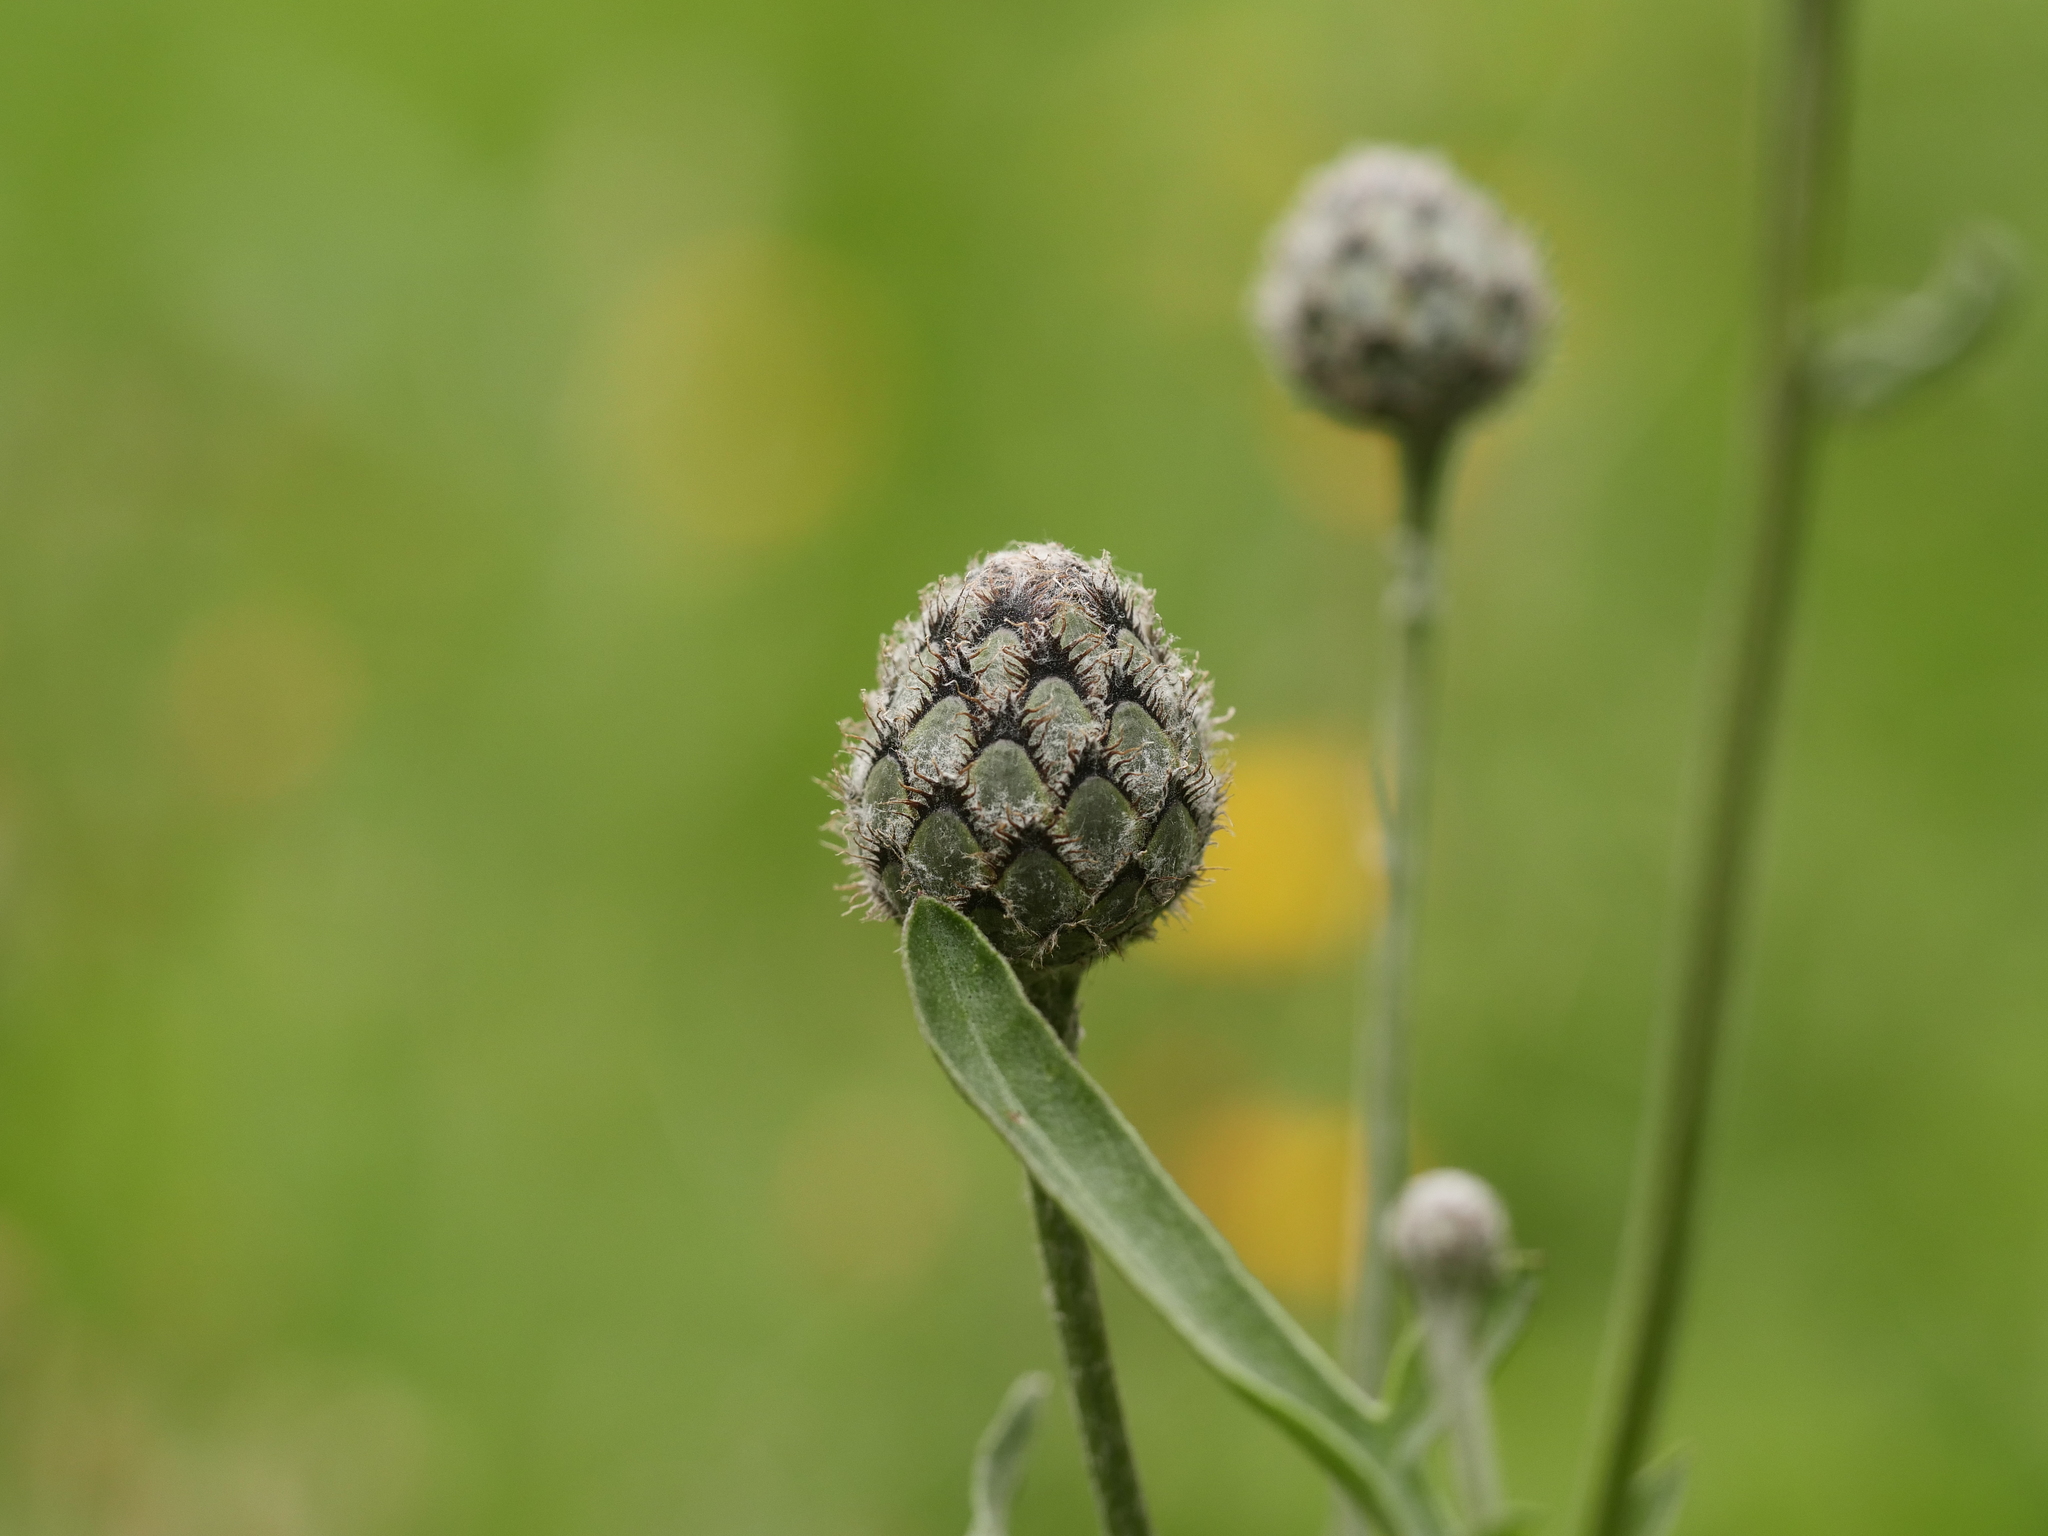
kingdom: Plantae
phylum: Tracheophyta
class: Magnoliopsida
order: Asterales
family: Asteraceae
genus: Centaurea
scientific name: Centaurea scabiosa
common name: Greater knapweed
